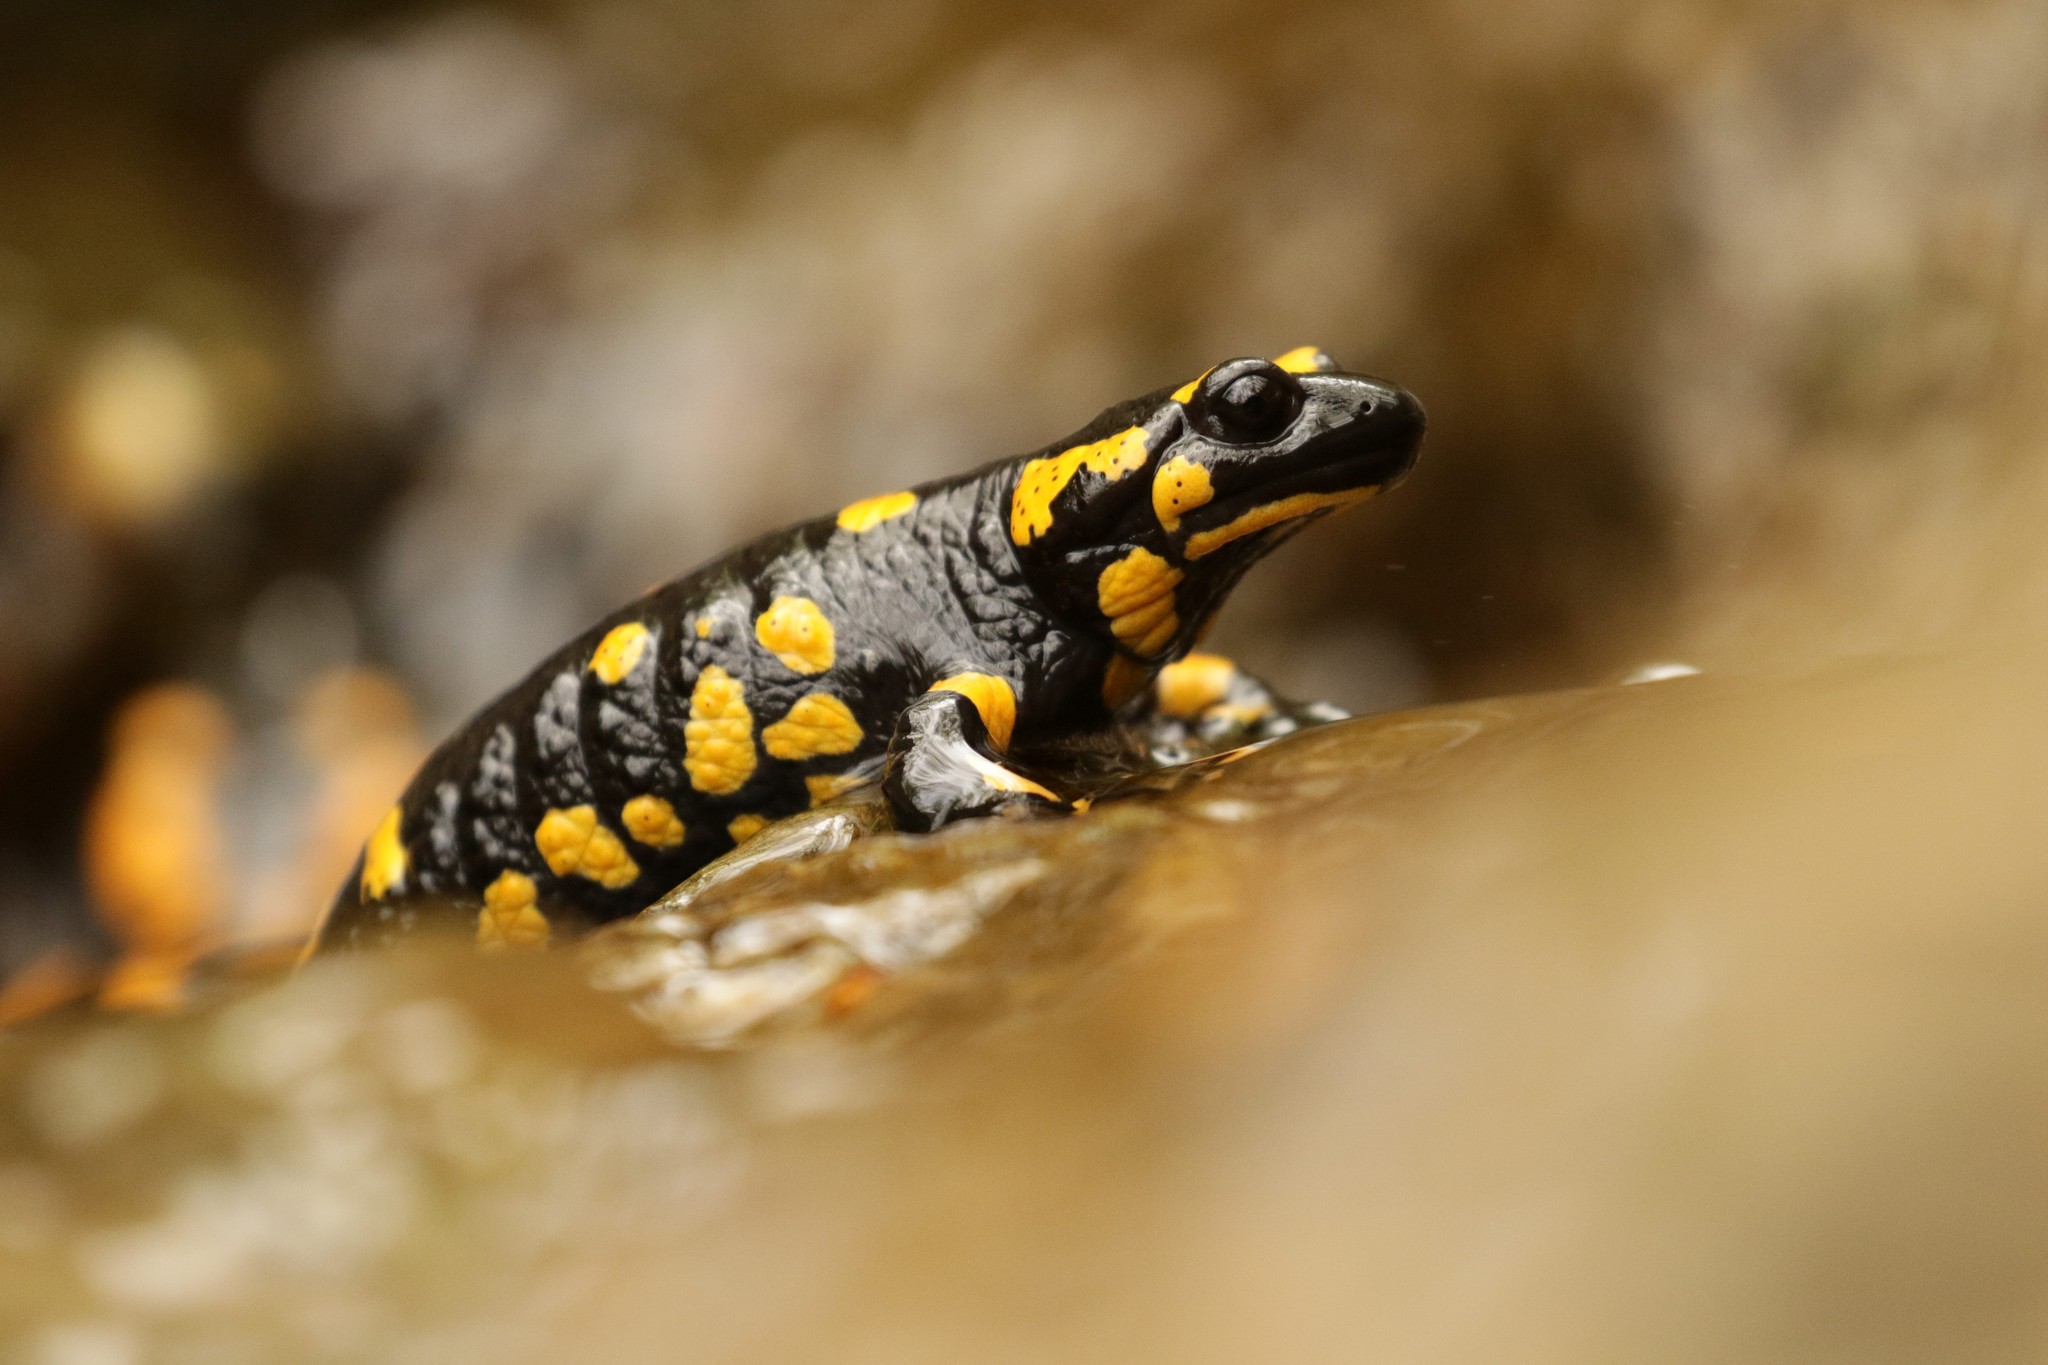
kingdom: Animalia
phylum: Chordata
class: Amphibia
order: Caudata
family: Salamandridae
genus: Salamandra
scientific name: Salamandra salamandra
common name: Fire salamander
